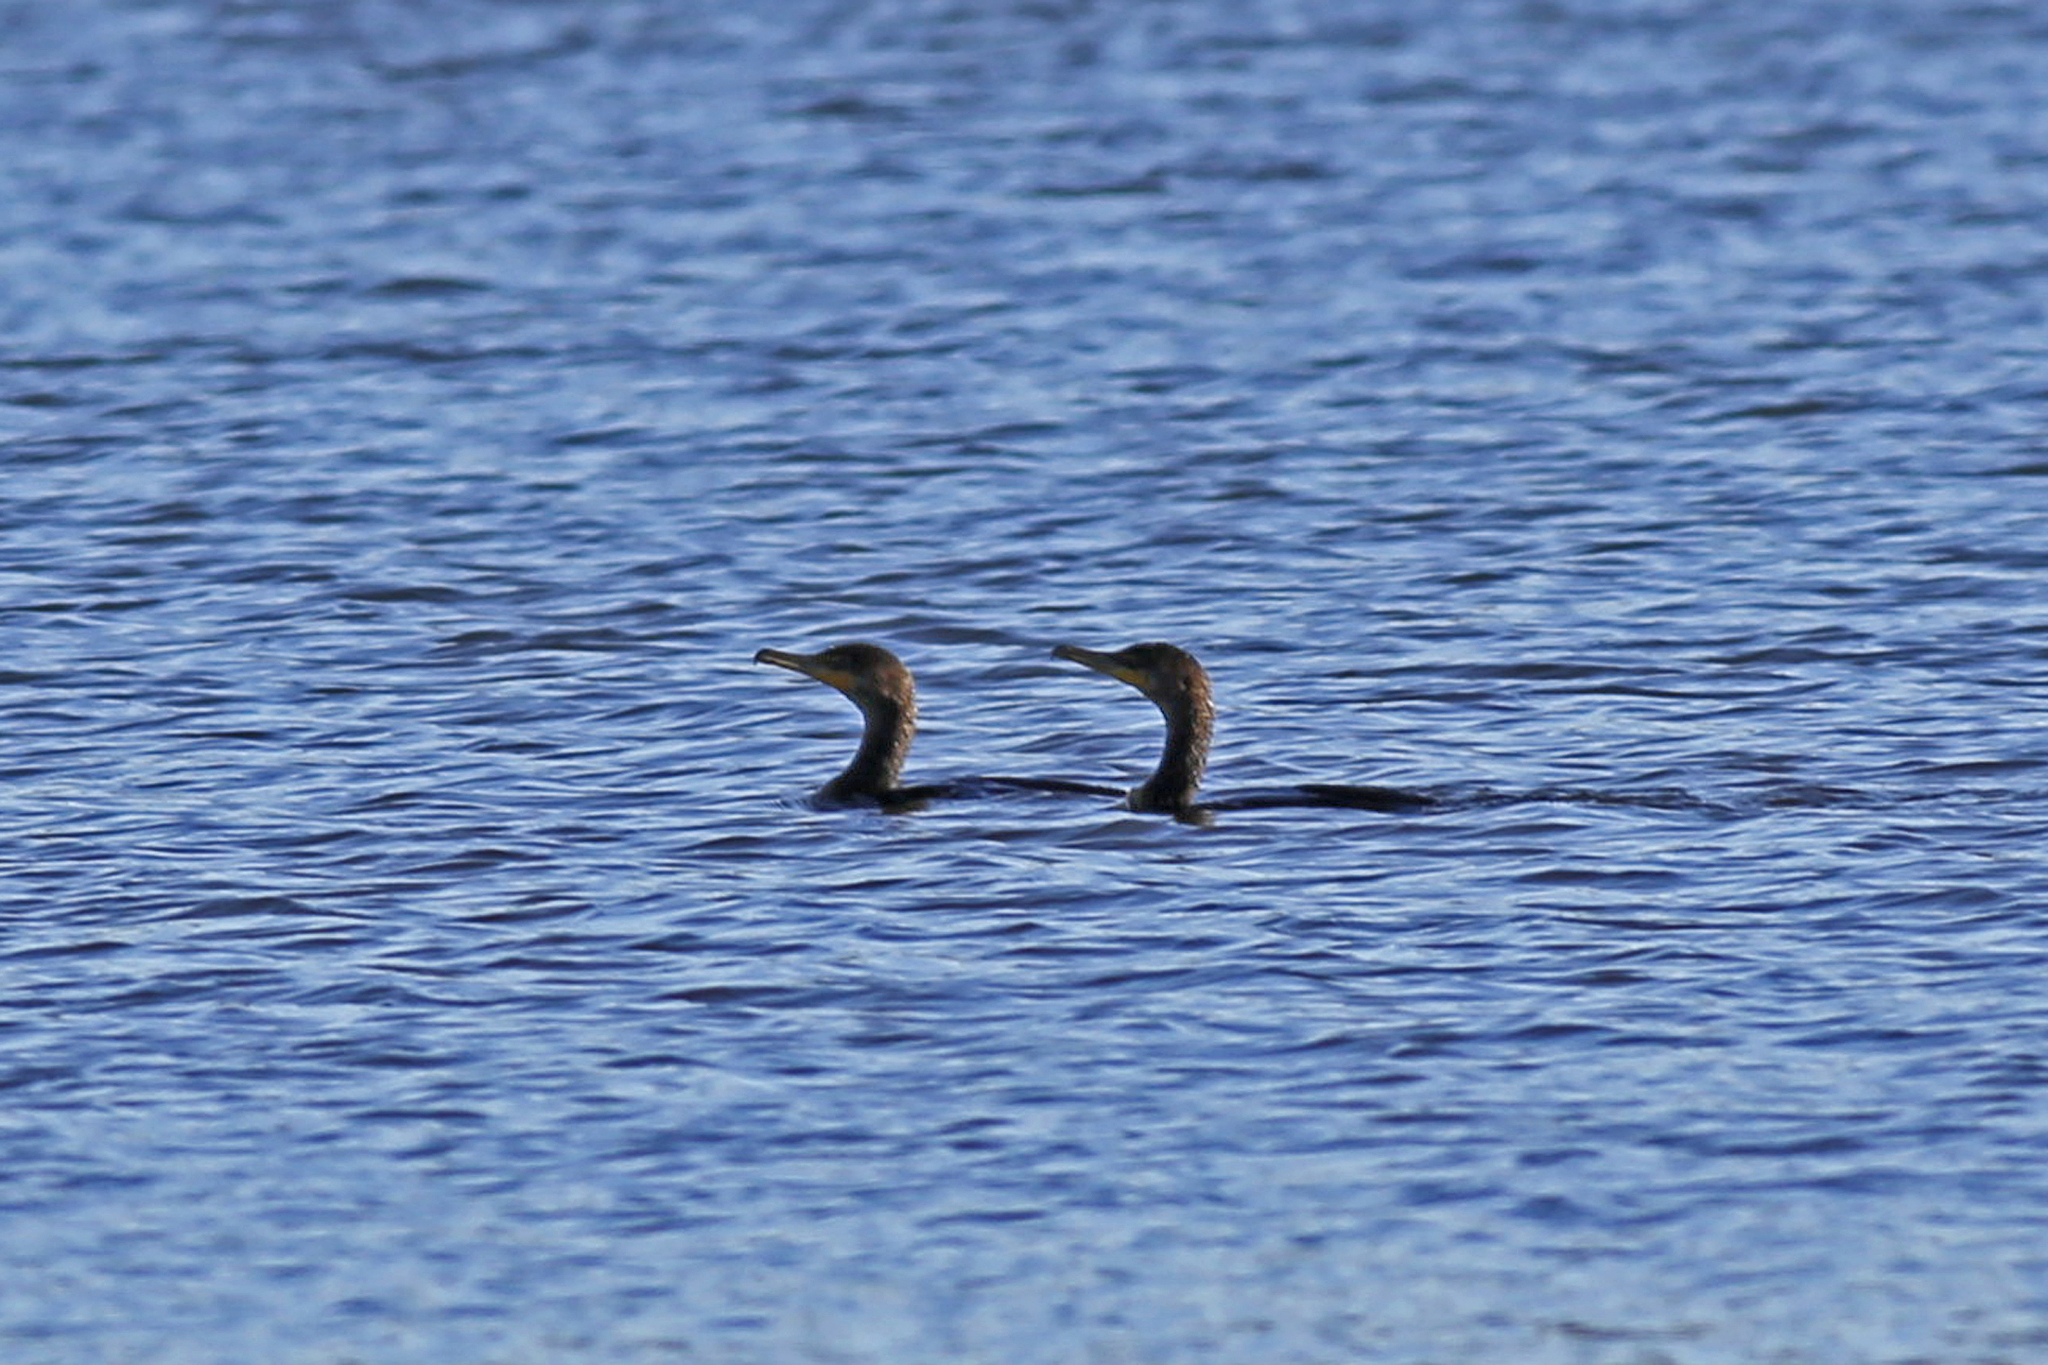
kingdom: Animalia
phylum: Chordata
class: Aves
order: Suliformes
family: Phalacrocoracidae
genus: Phalacrocorax
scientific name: Phalacrocorax auritus
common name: Double-crested cormorant
